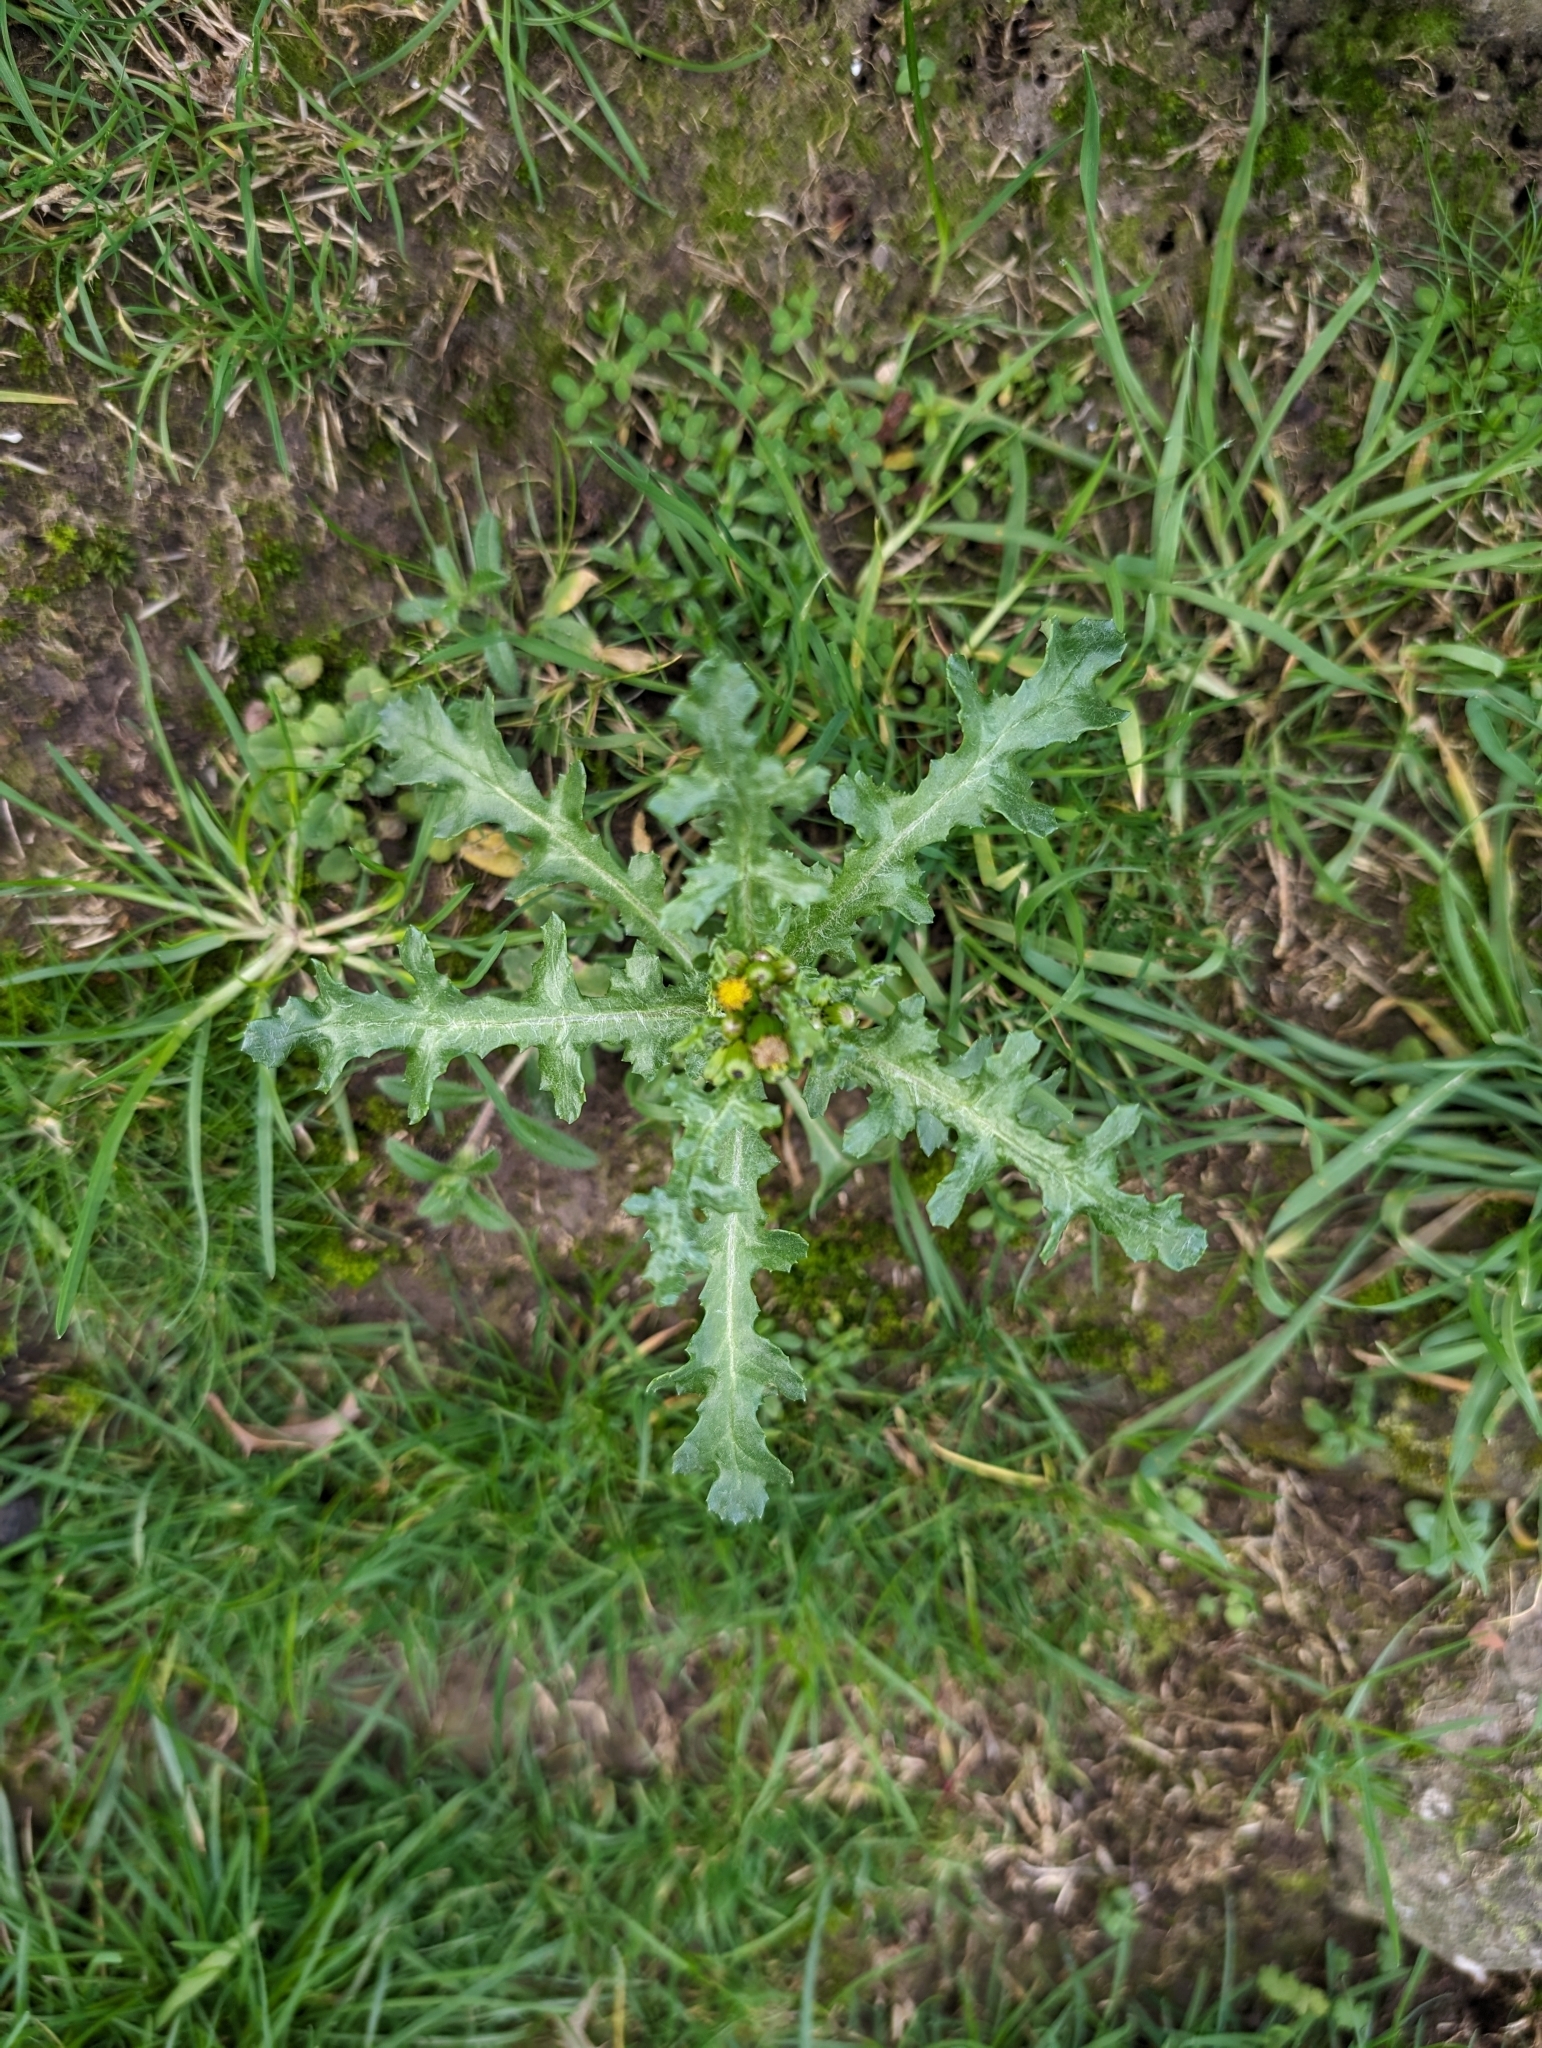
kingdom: Plantae
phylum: Tracheophyta
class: Magnoliopsida
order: Asterales
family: Asteraceae
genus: Senecio
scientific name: Senecio vulgaris
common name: Old-man-in-the-spring
